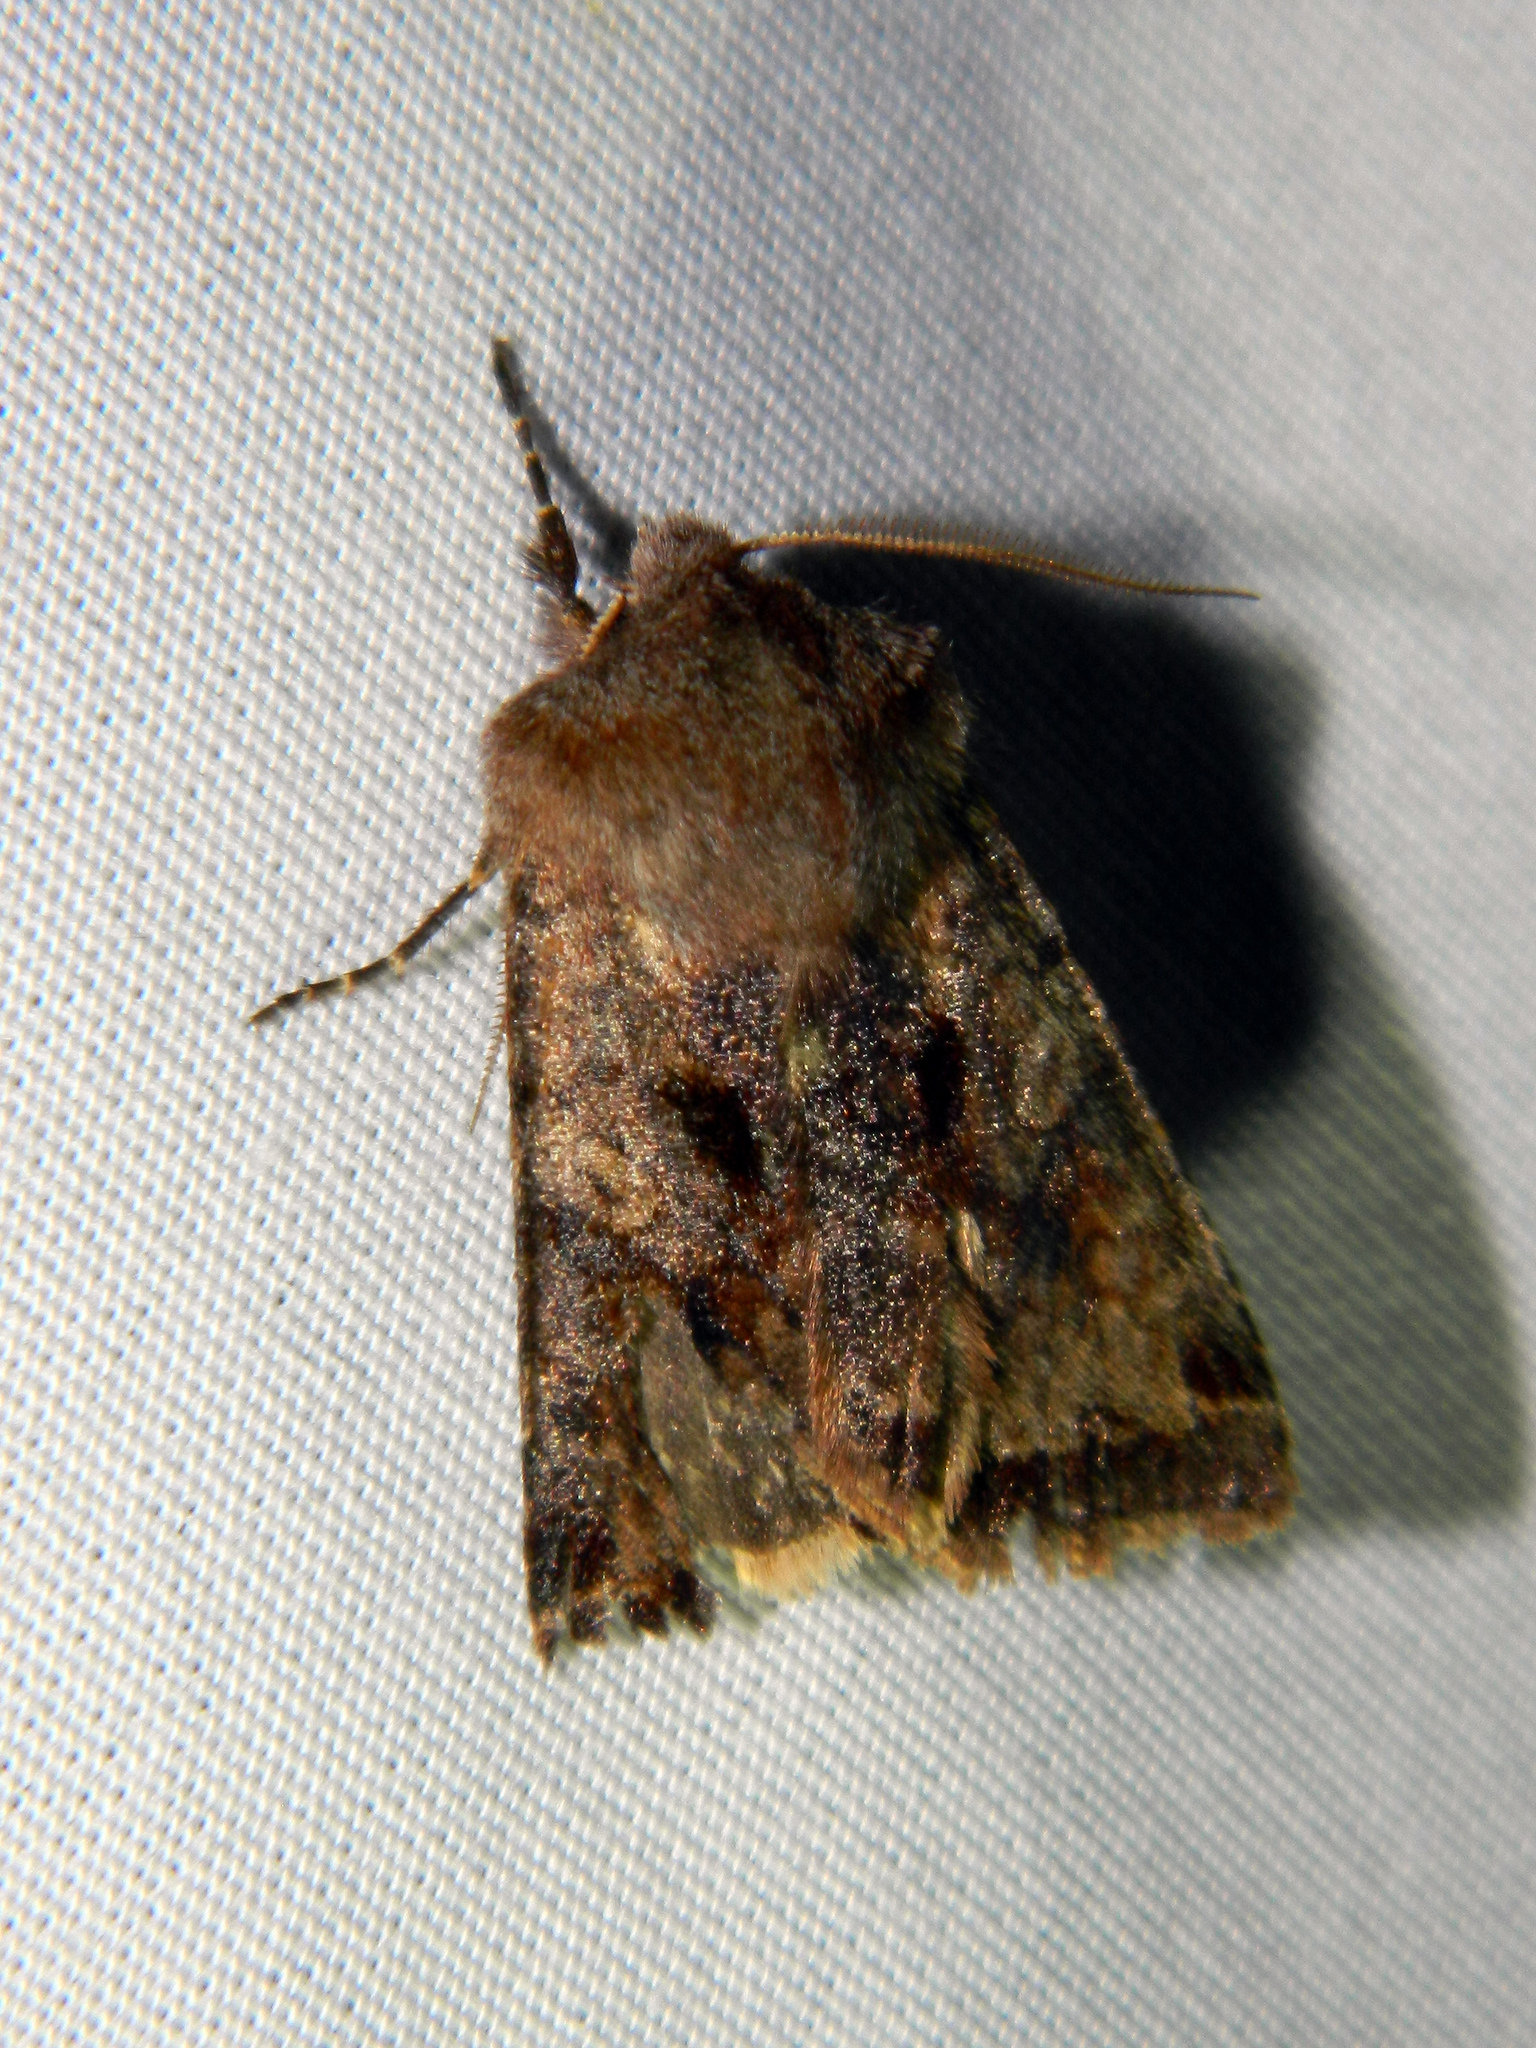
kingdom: Animalia
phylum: Arthropoda
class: Insecta
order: Lepidoptera
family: Noctuidae
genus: Cerastis
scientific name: Cerastis salicarum
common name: Willow dart
